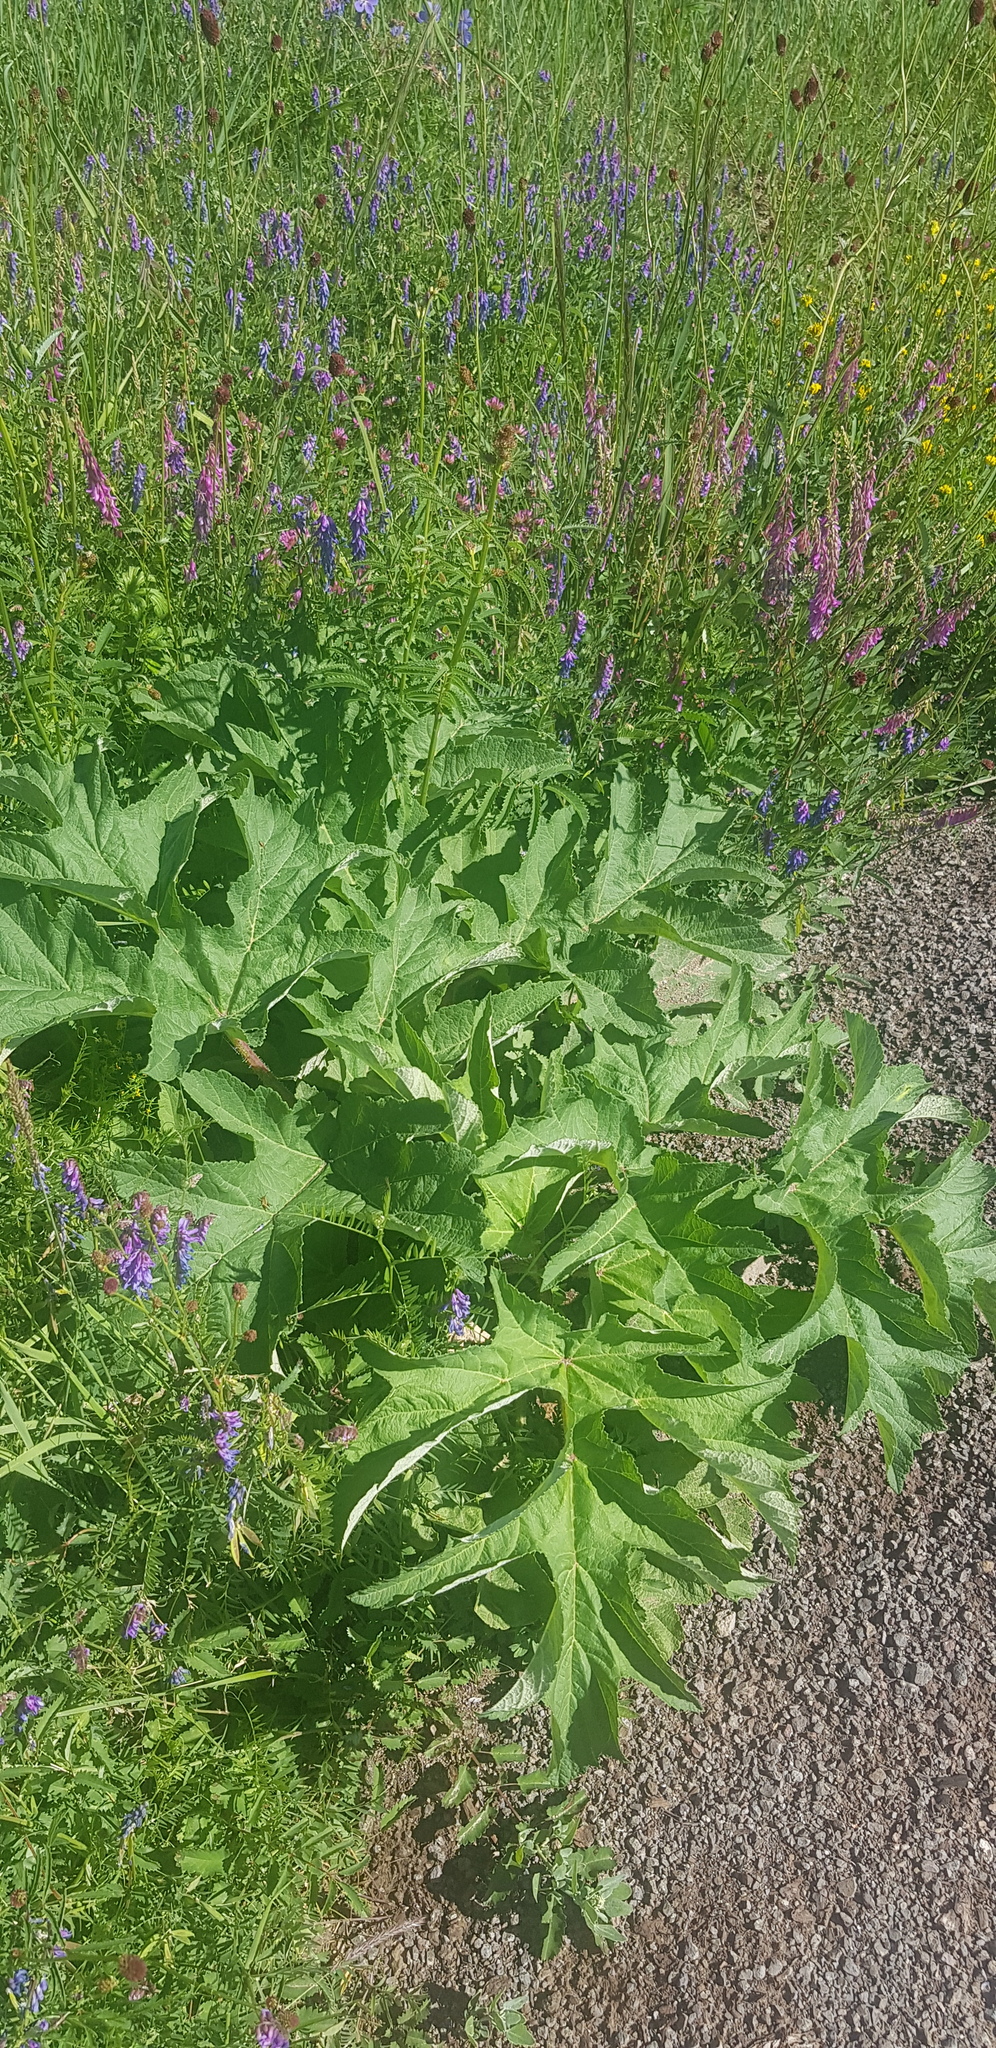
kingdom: Plantae
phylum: Tracheophyta
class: Magnoliopsida
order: Apiales
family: Apiaceae
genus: Heracleum
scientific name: Heracleum dissectum
